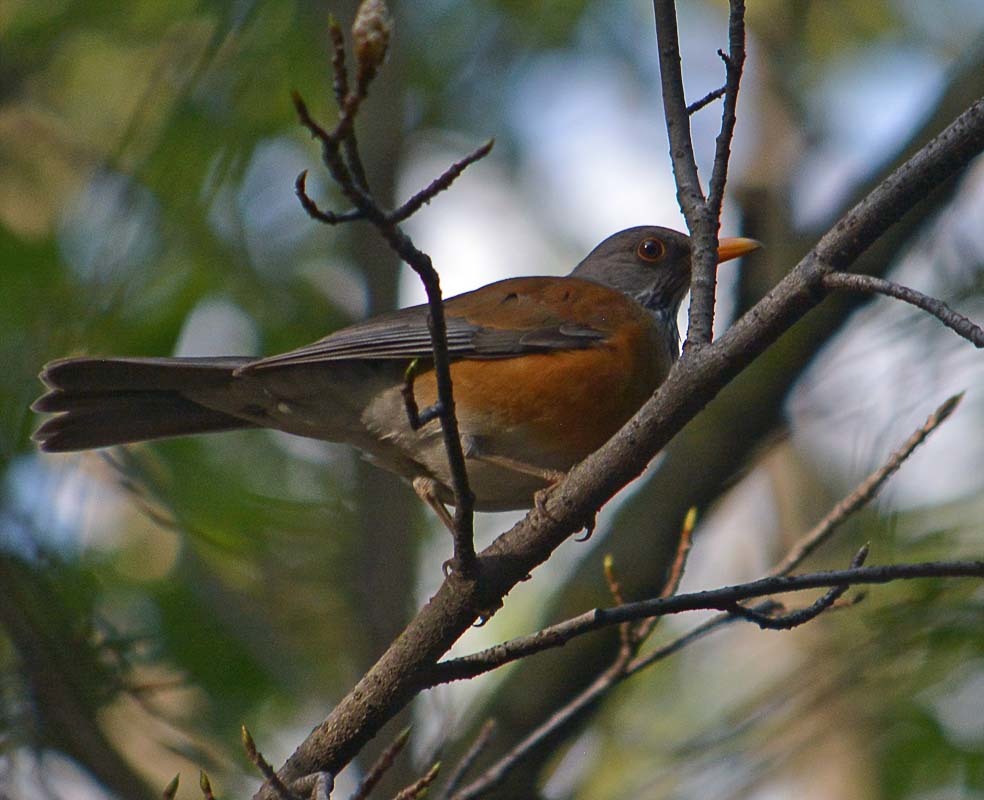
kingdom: Animalia
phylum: Chordata
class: Aves
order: Passeriformes
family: Turdidae
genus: Turdus
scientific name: Turdus rufopalliatus
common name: Rufous-backed robin
